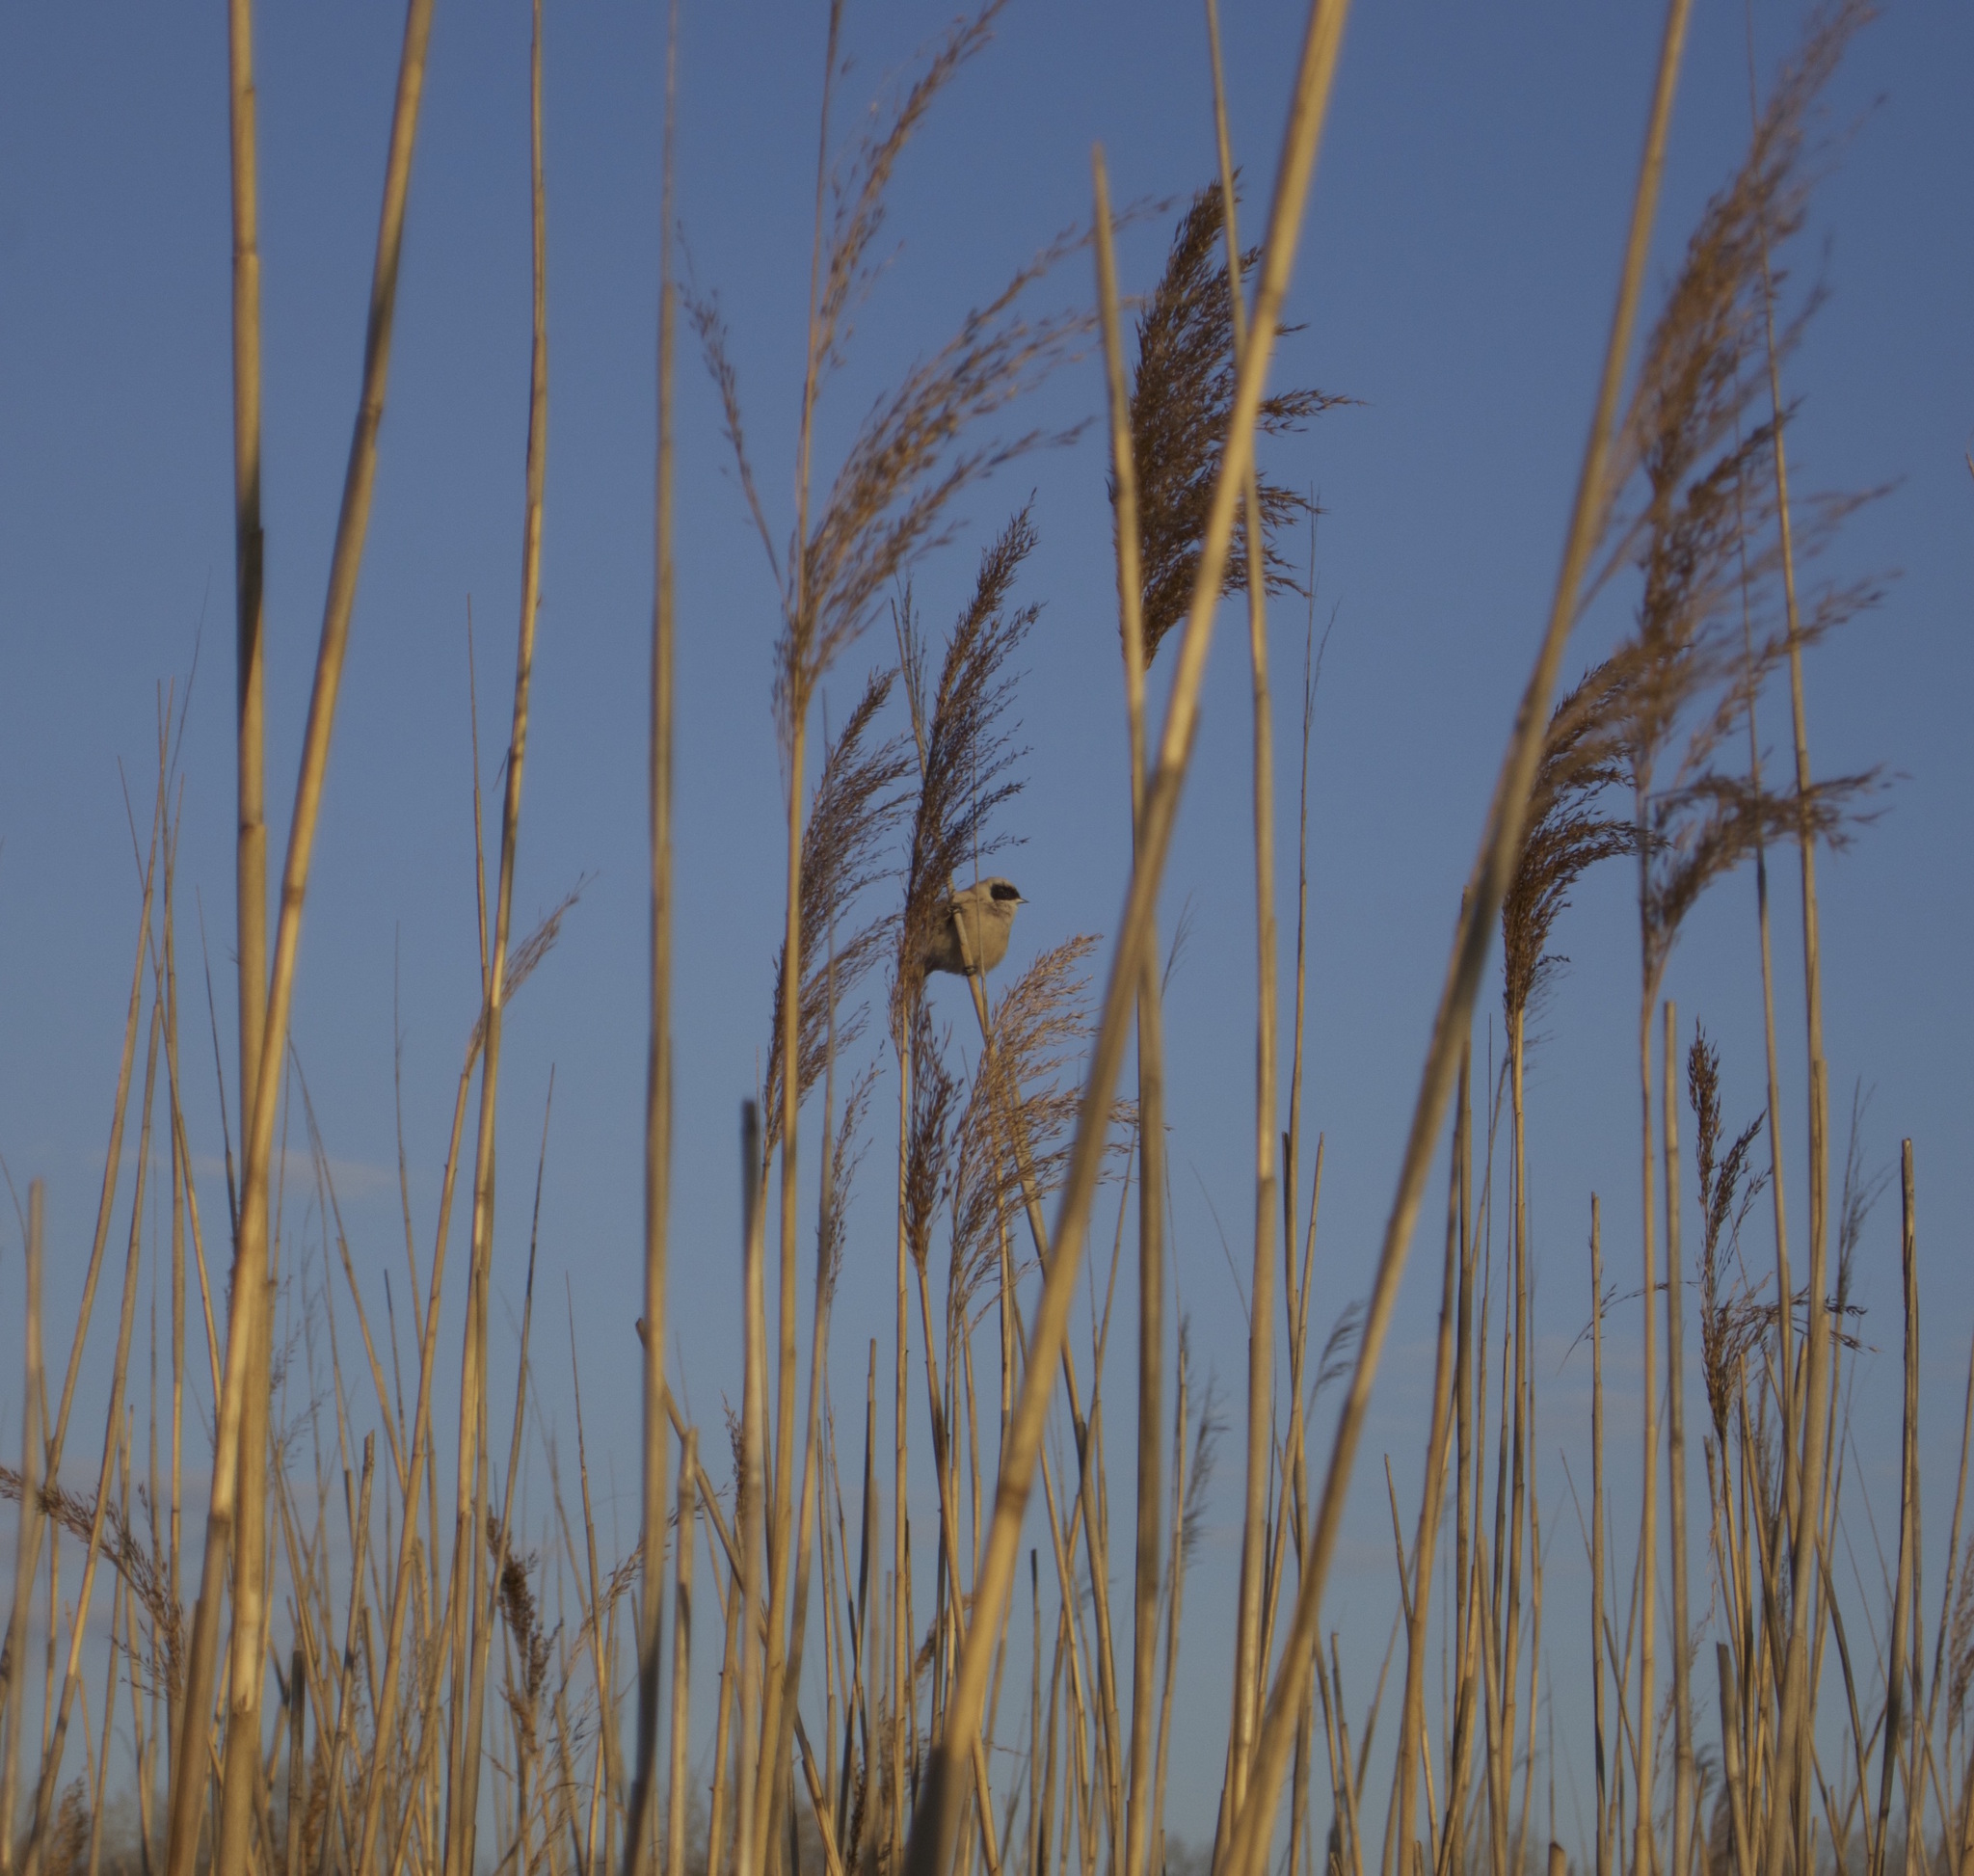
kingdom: Animalia
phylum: Chordata
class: Aves
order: Passeriformes
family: Remizidae
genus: Remiz
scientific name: Remiz pendulinus
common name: Eurasian penduline tit
